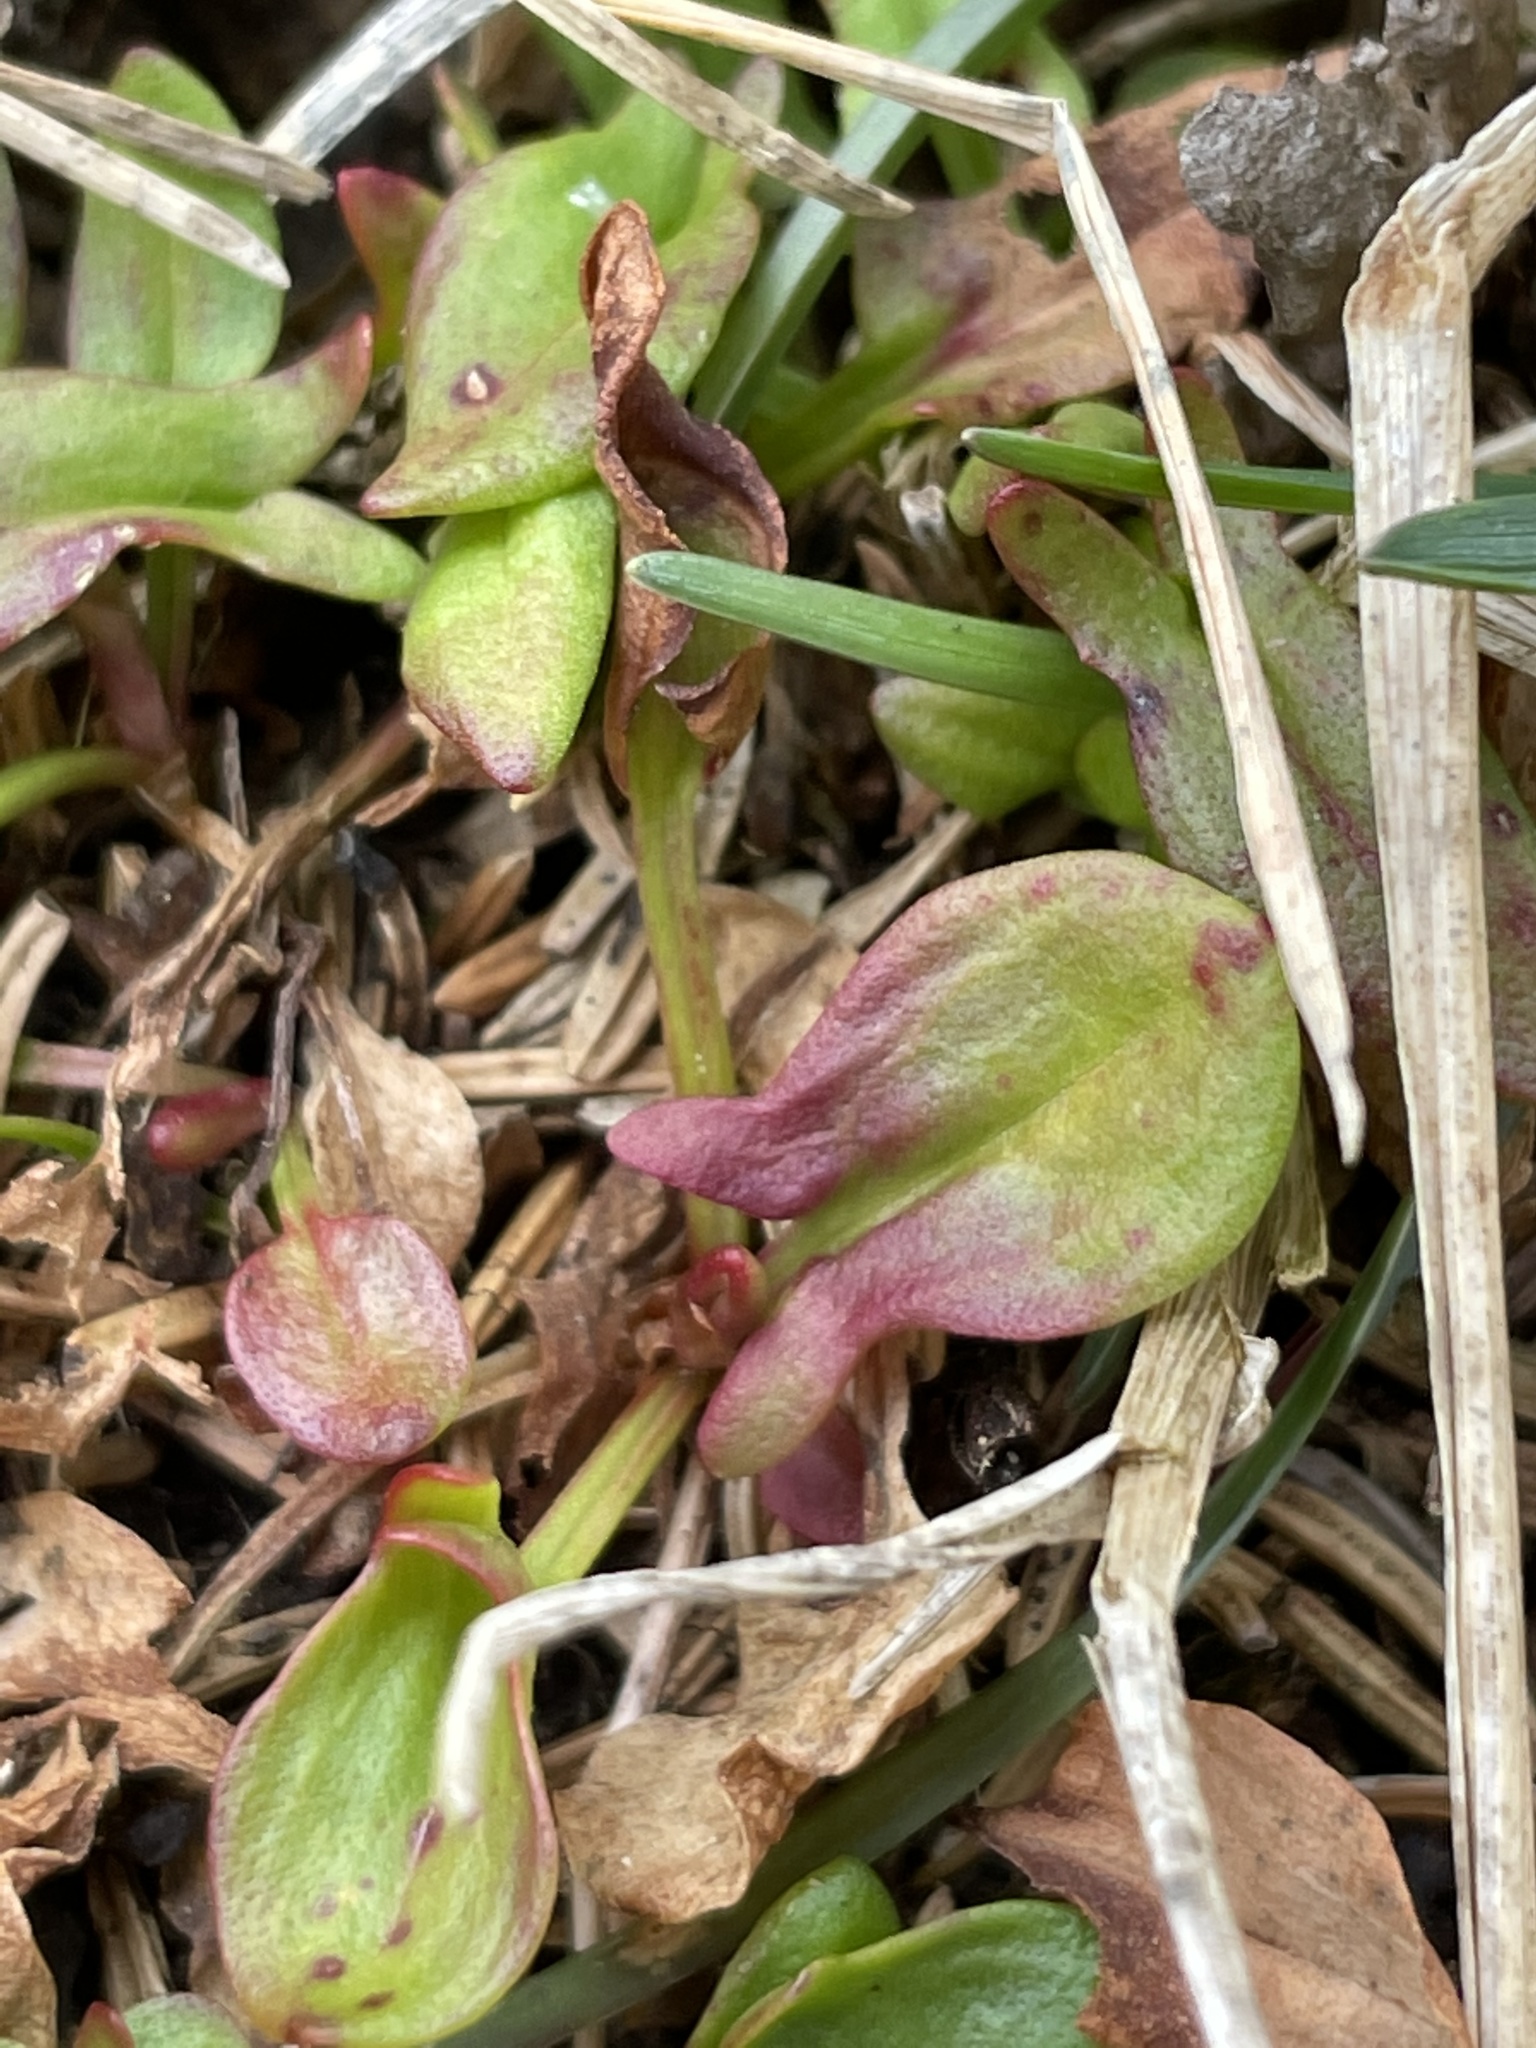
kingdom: Plantae
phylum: Tracheophyta
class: Magnoliopsida
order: Caryophyllales
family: Polygonaceae
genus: Rumex
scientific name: Rumex acetosella
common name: Common sheep sorrel
